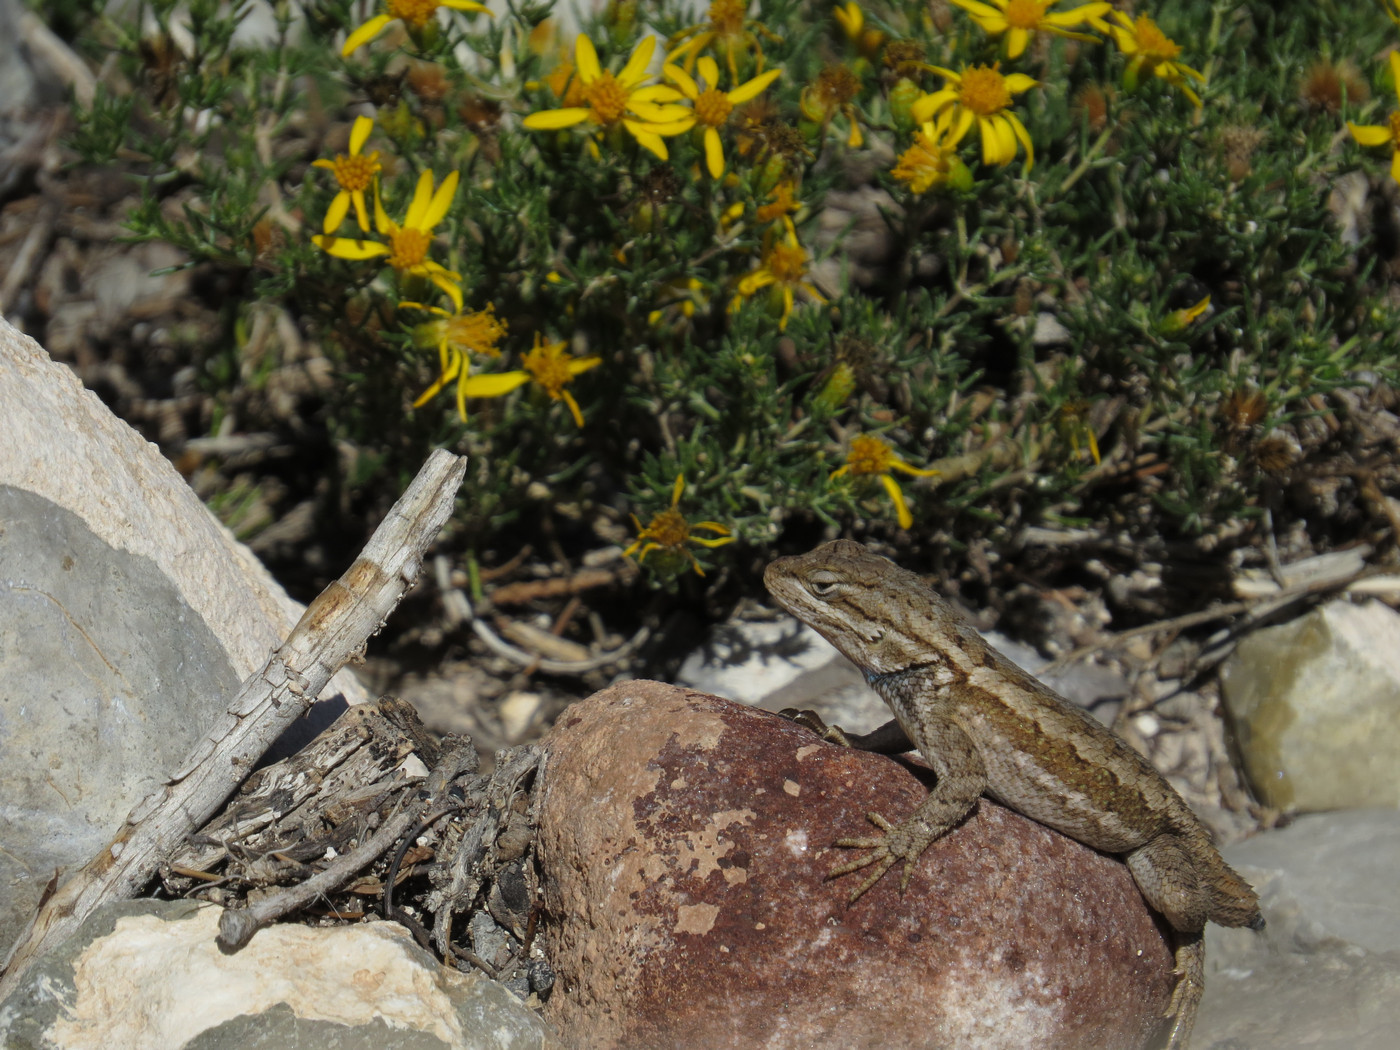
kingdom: Animalia
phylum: Chordata
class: Squamata
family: Phrynosomatidae
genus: Sceloporus
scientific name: Sceloporus cowlesi
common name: White sands prairie lizard
